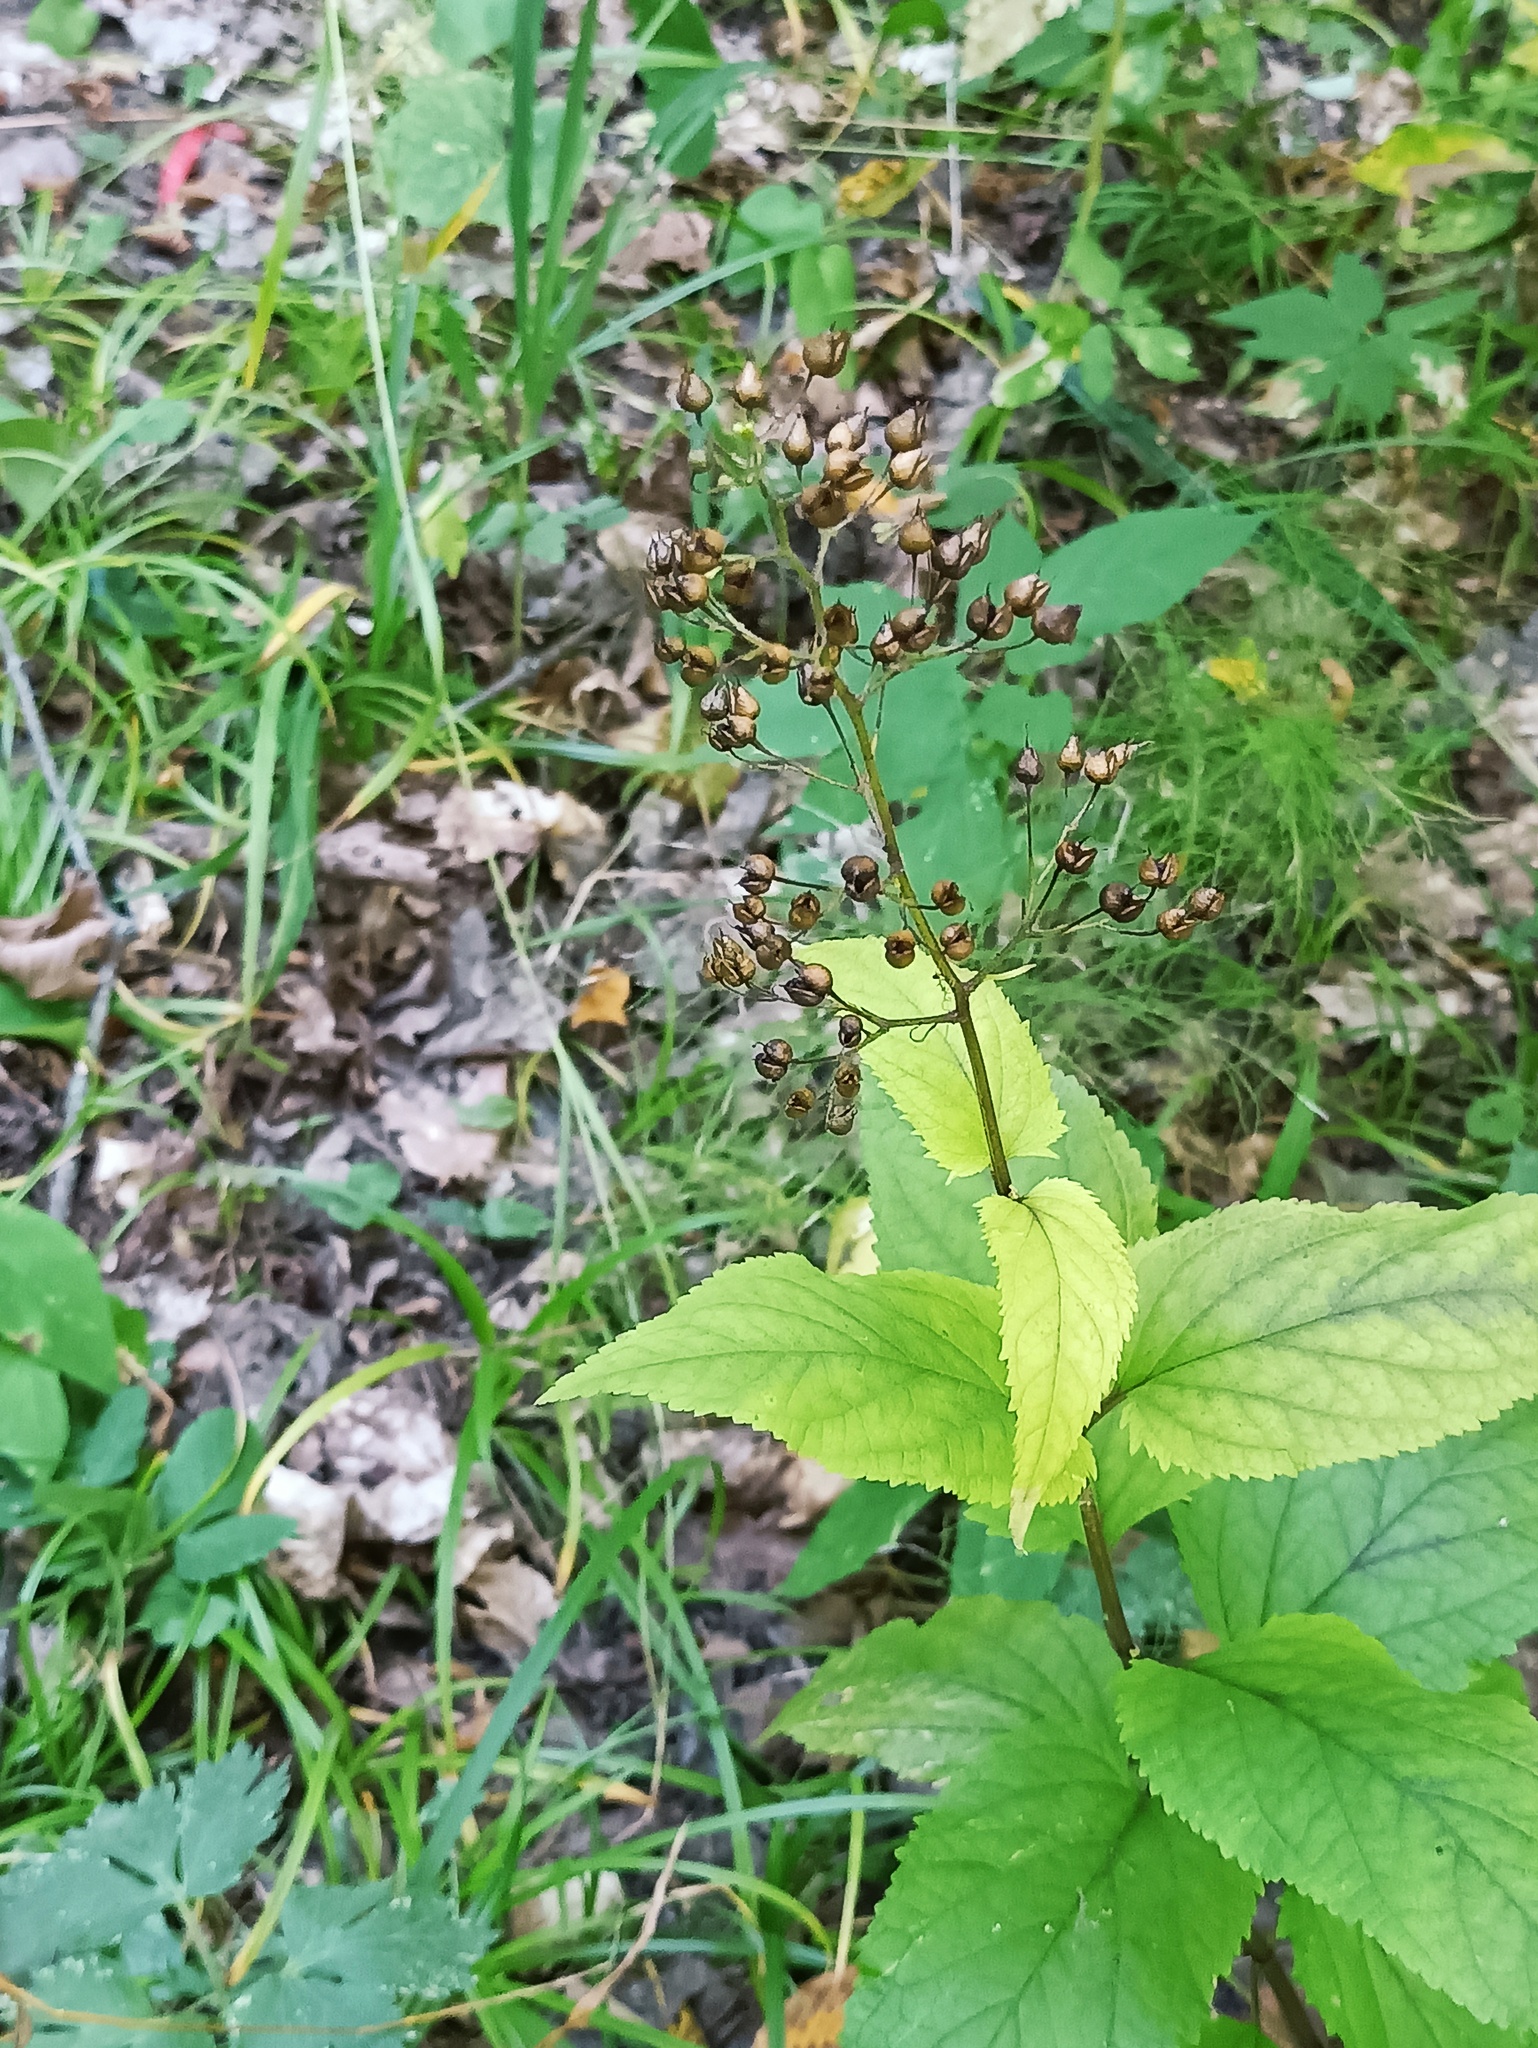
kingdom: Plantae
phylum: Tracheophyta
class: Magnoliopsida
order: Lamiales
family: Scrophulariaceae
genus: Scrophularia
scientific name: Scrophularia nodosa
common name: Common figwort
